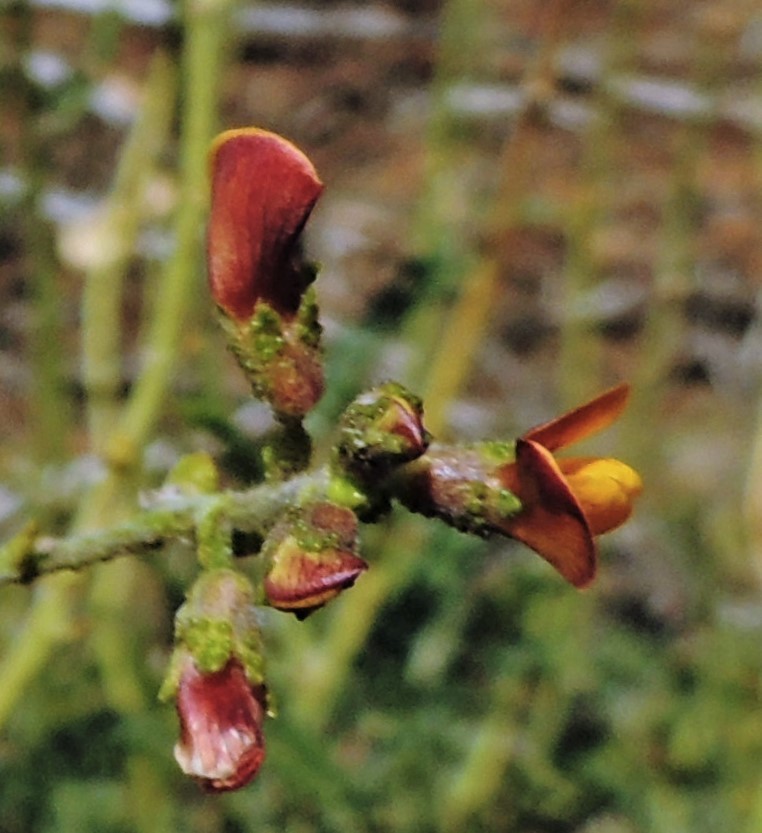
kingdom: Plantae
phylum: Tracheophyta
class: Magnoliopsida
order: Fabales
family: Fabaceae
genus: Adesmia
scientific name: Adesmia emarginata
